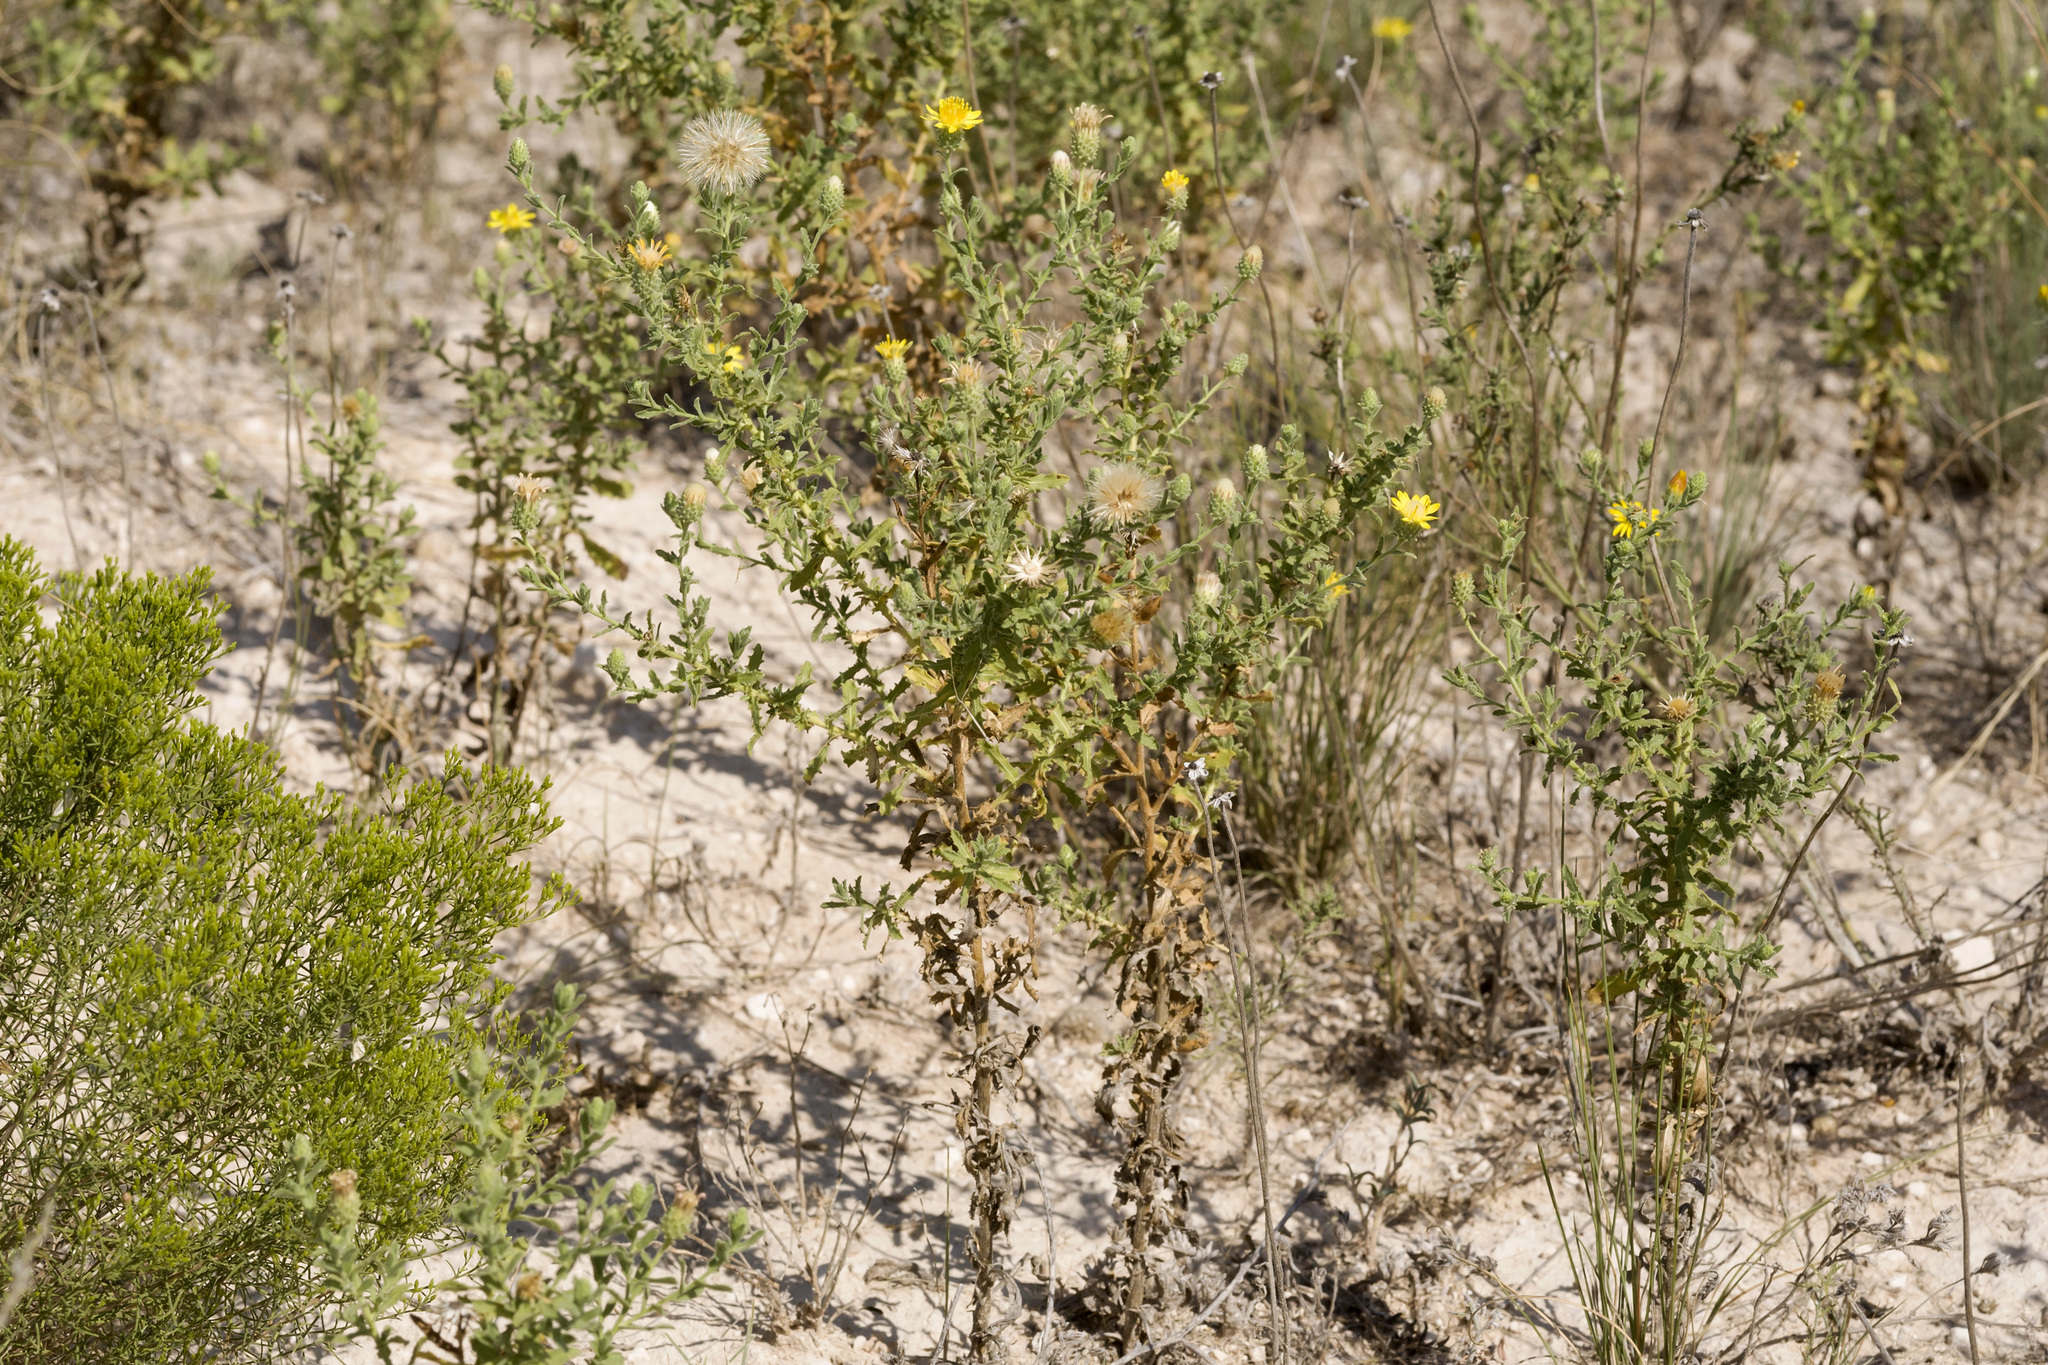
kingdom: Plantae
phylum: Tracheophyta
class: Magnoliopsida
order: Asterales
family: Asteraceae
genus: Xanthisma
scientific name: Xanthisma viscidum
